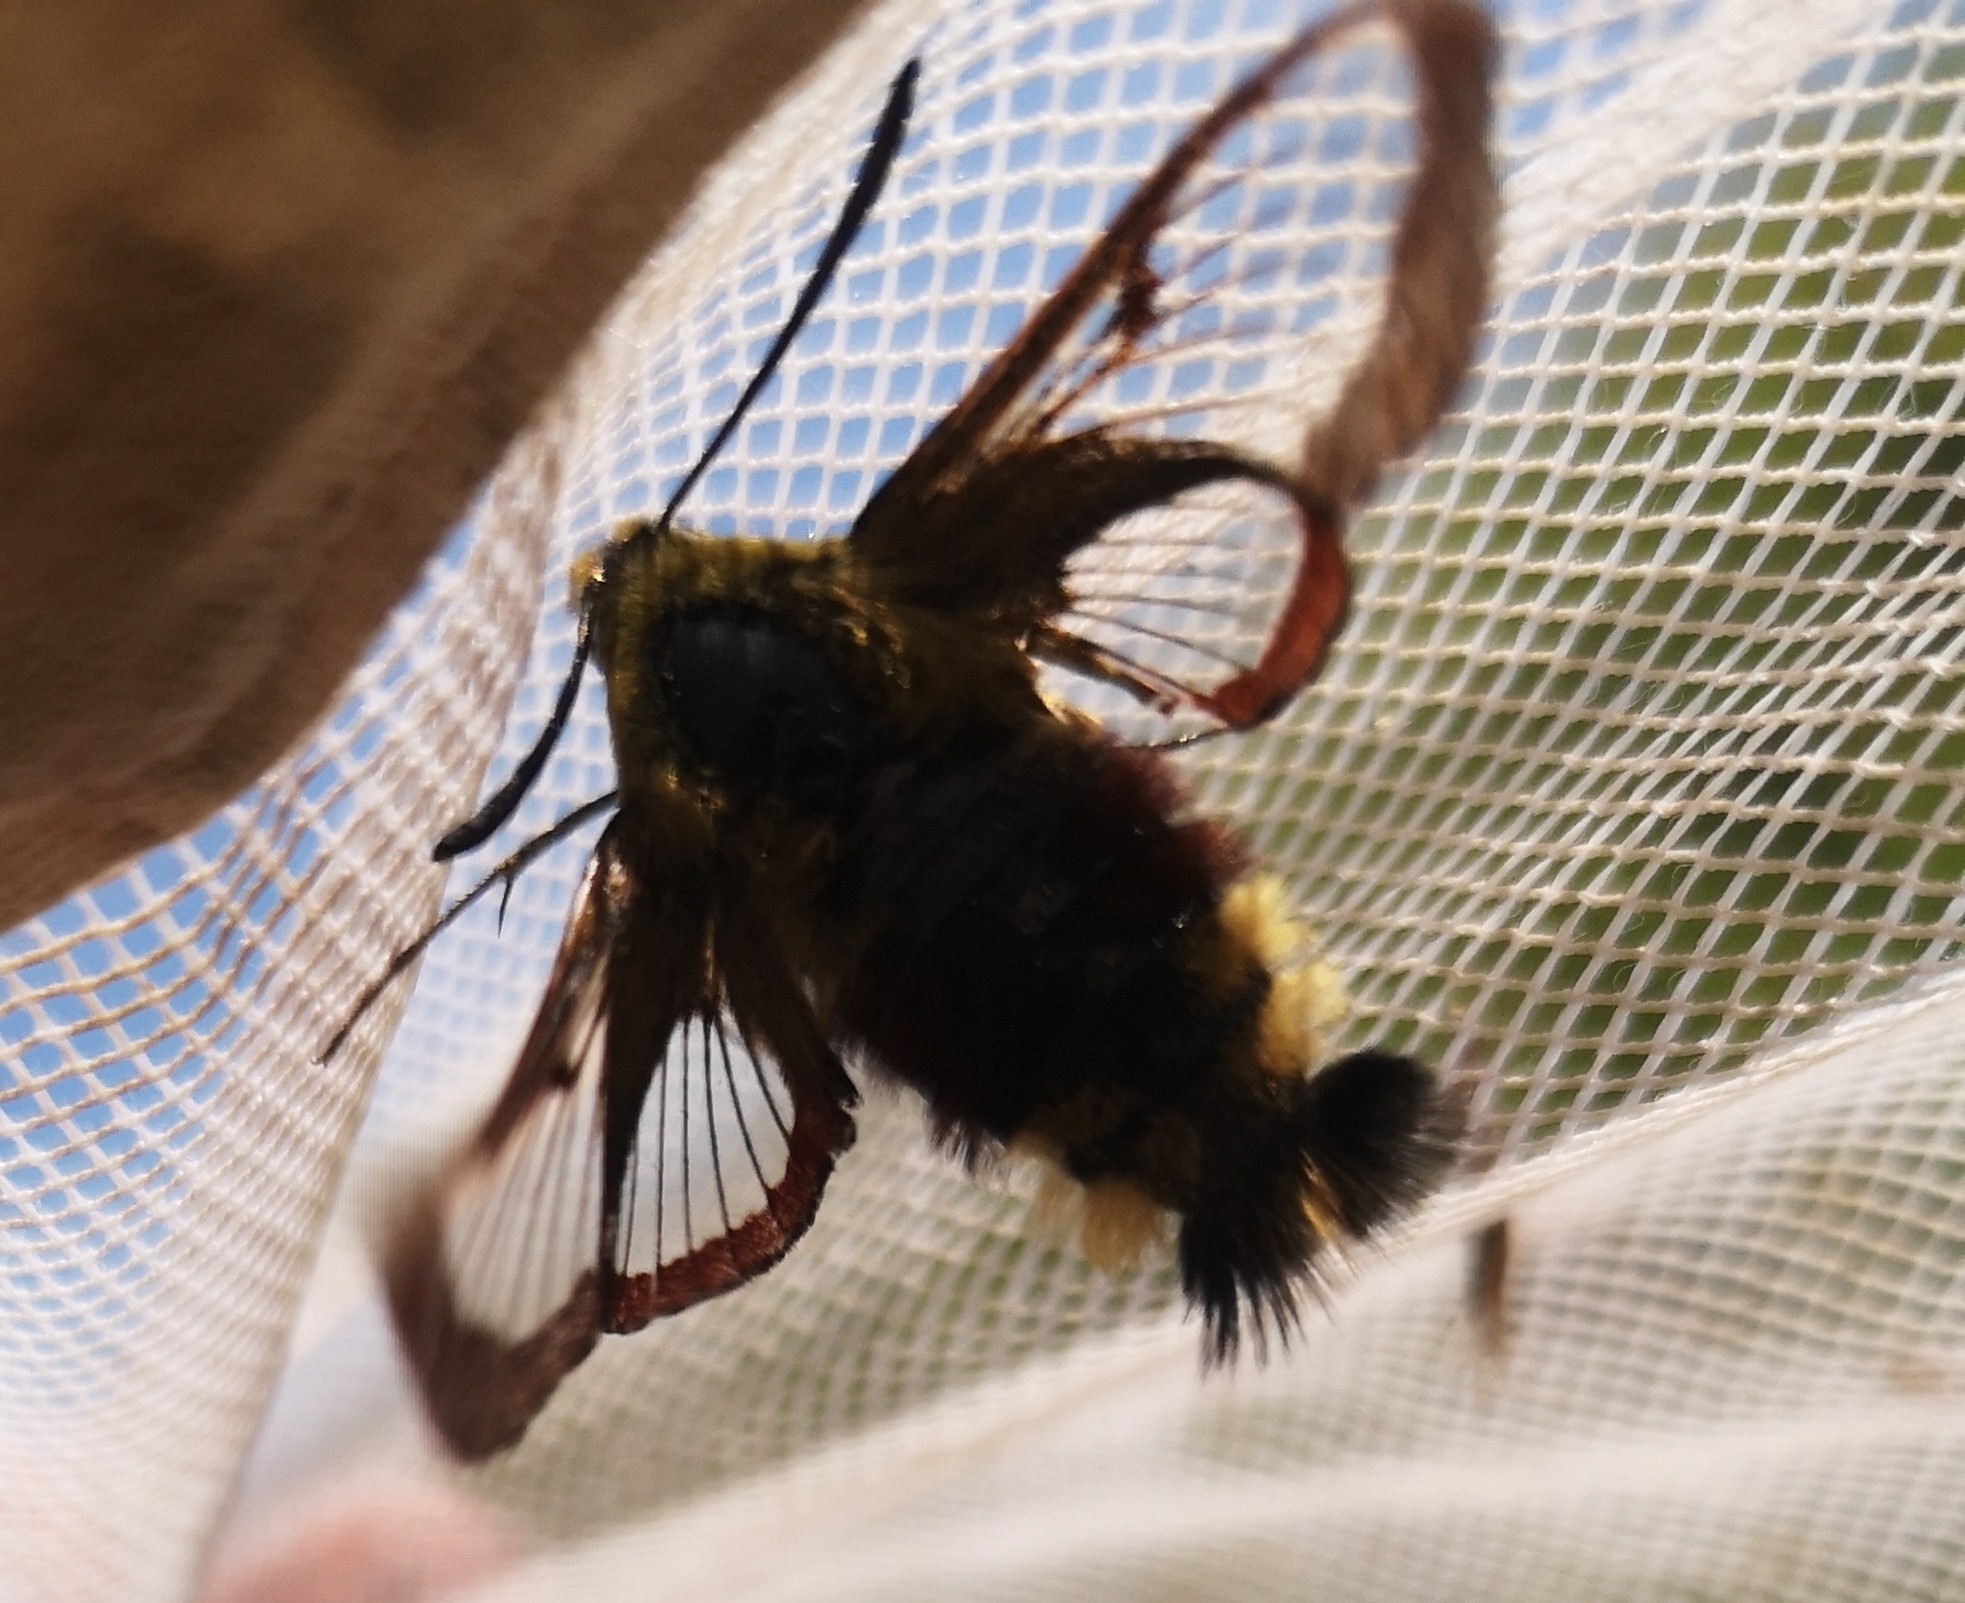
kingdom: Animalia
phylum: Arthropoda
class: Insecta
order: Lepidoptera
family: Sphingidae
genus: Hemaris
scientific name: Hemaris fuciformis
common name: Broad-bordered bee hawk-moth
